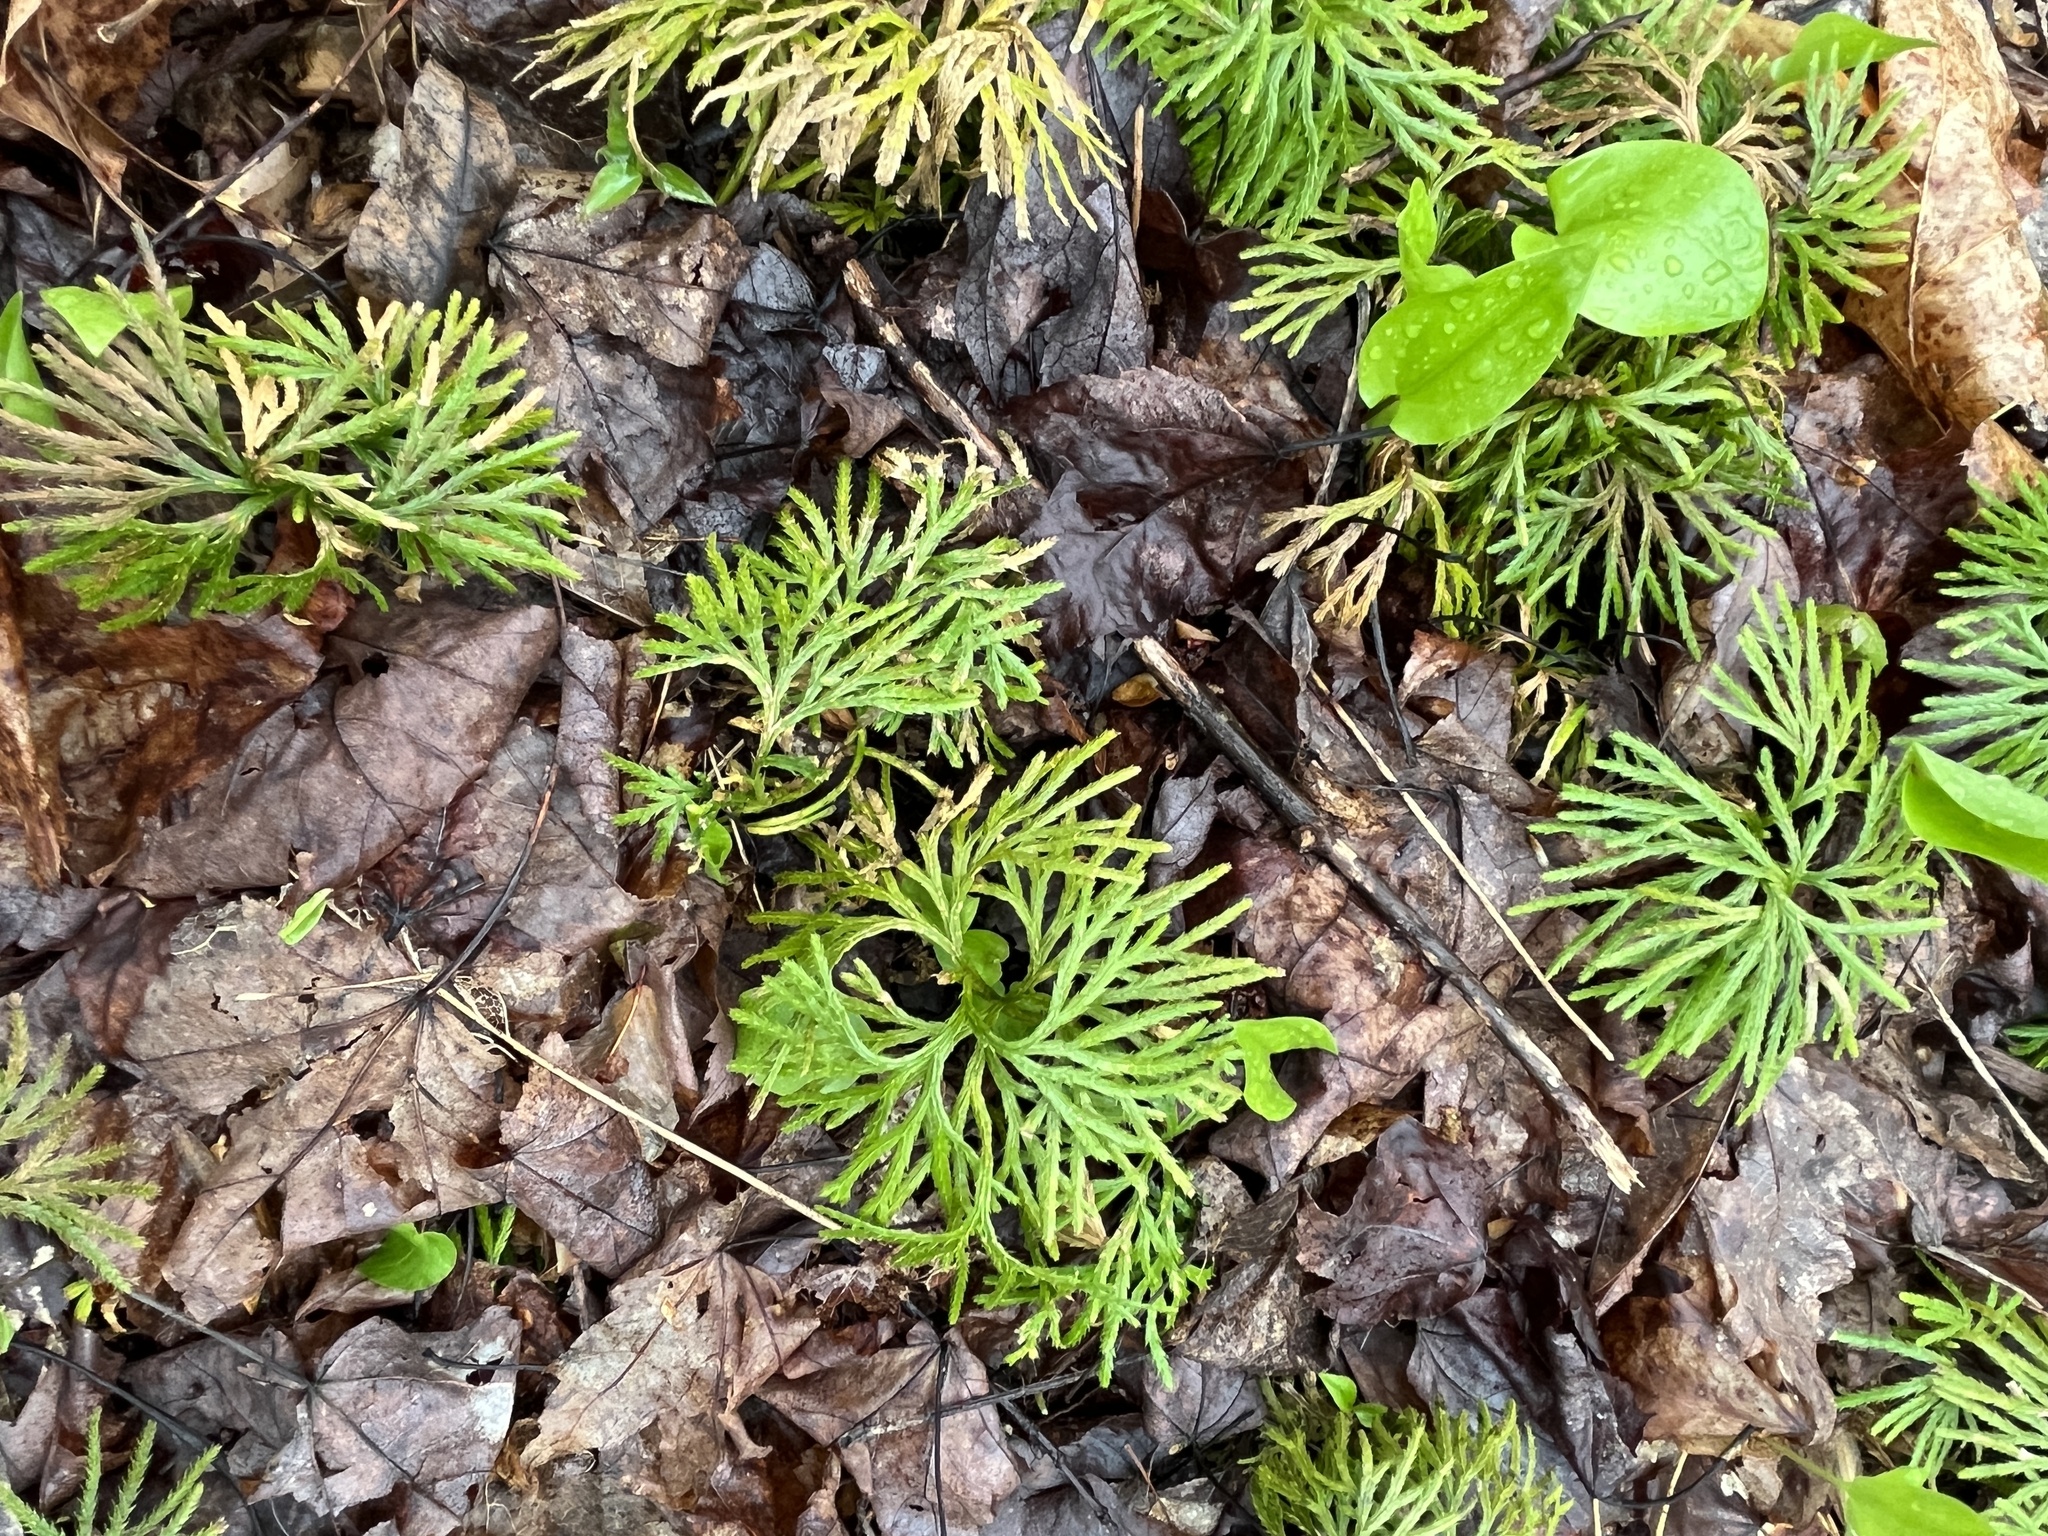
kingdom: Plantae
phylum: Tracheophyta
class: Lycopodiopsida
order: Lycopodiales
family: Lycopodiaceae
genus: Diphasiastrum
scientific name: Diphasiastrum digitatum
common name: Southern running-pine
